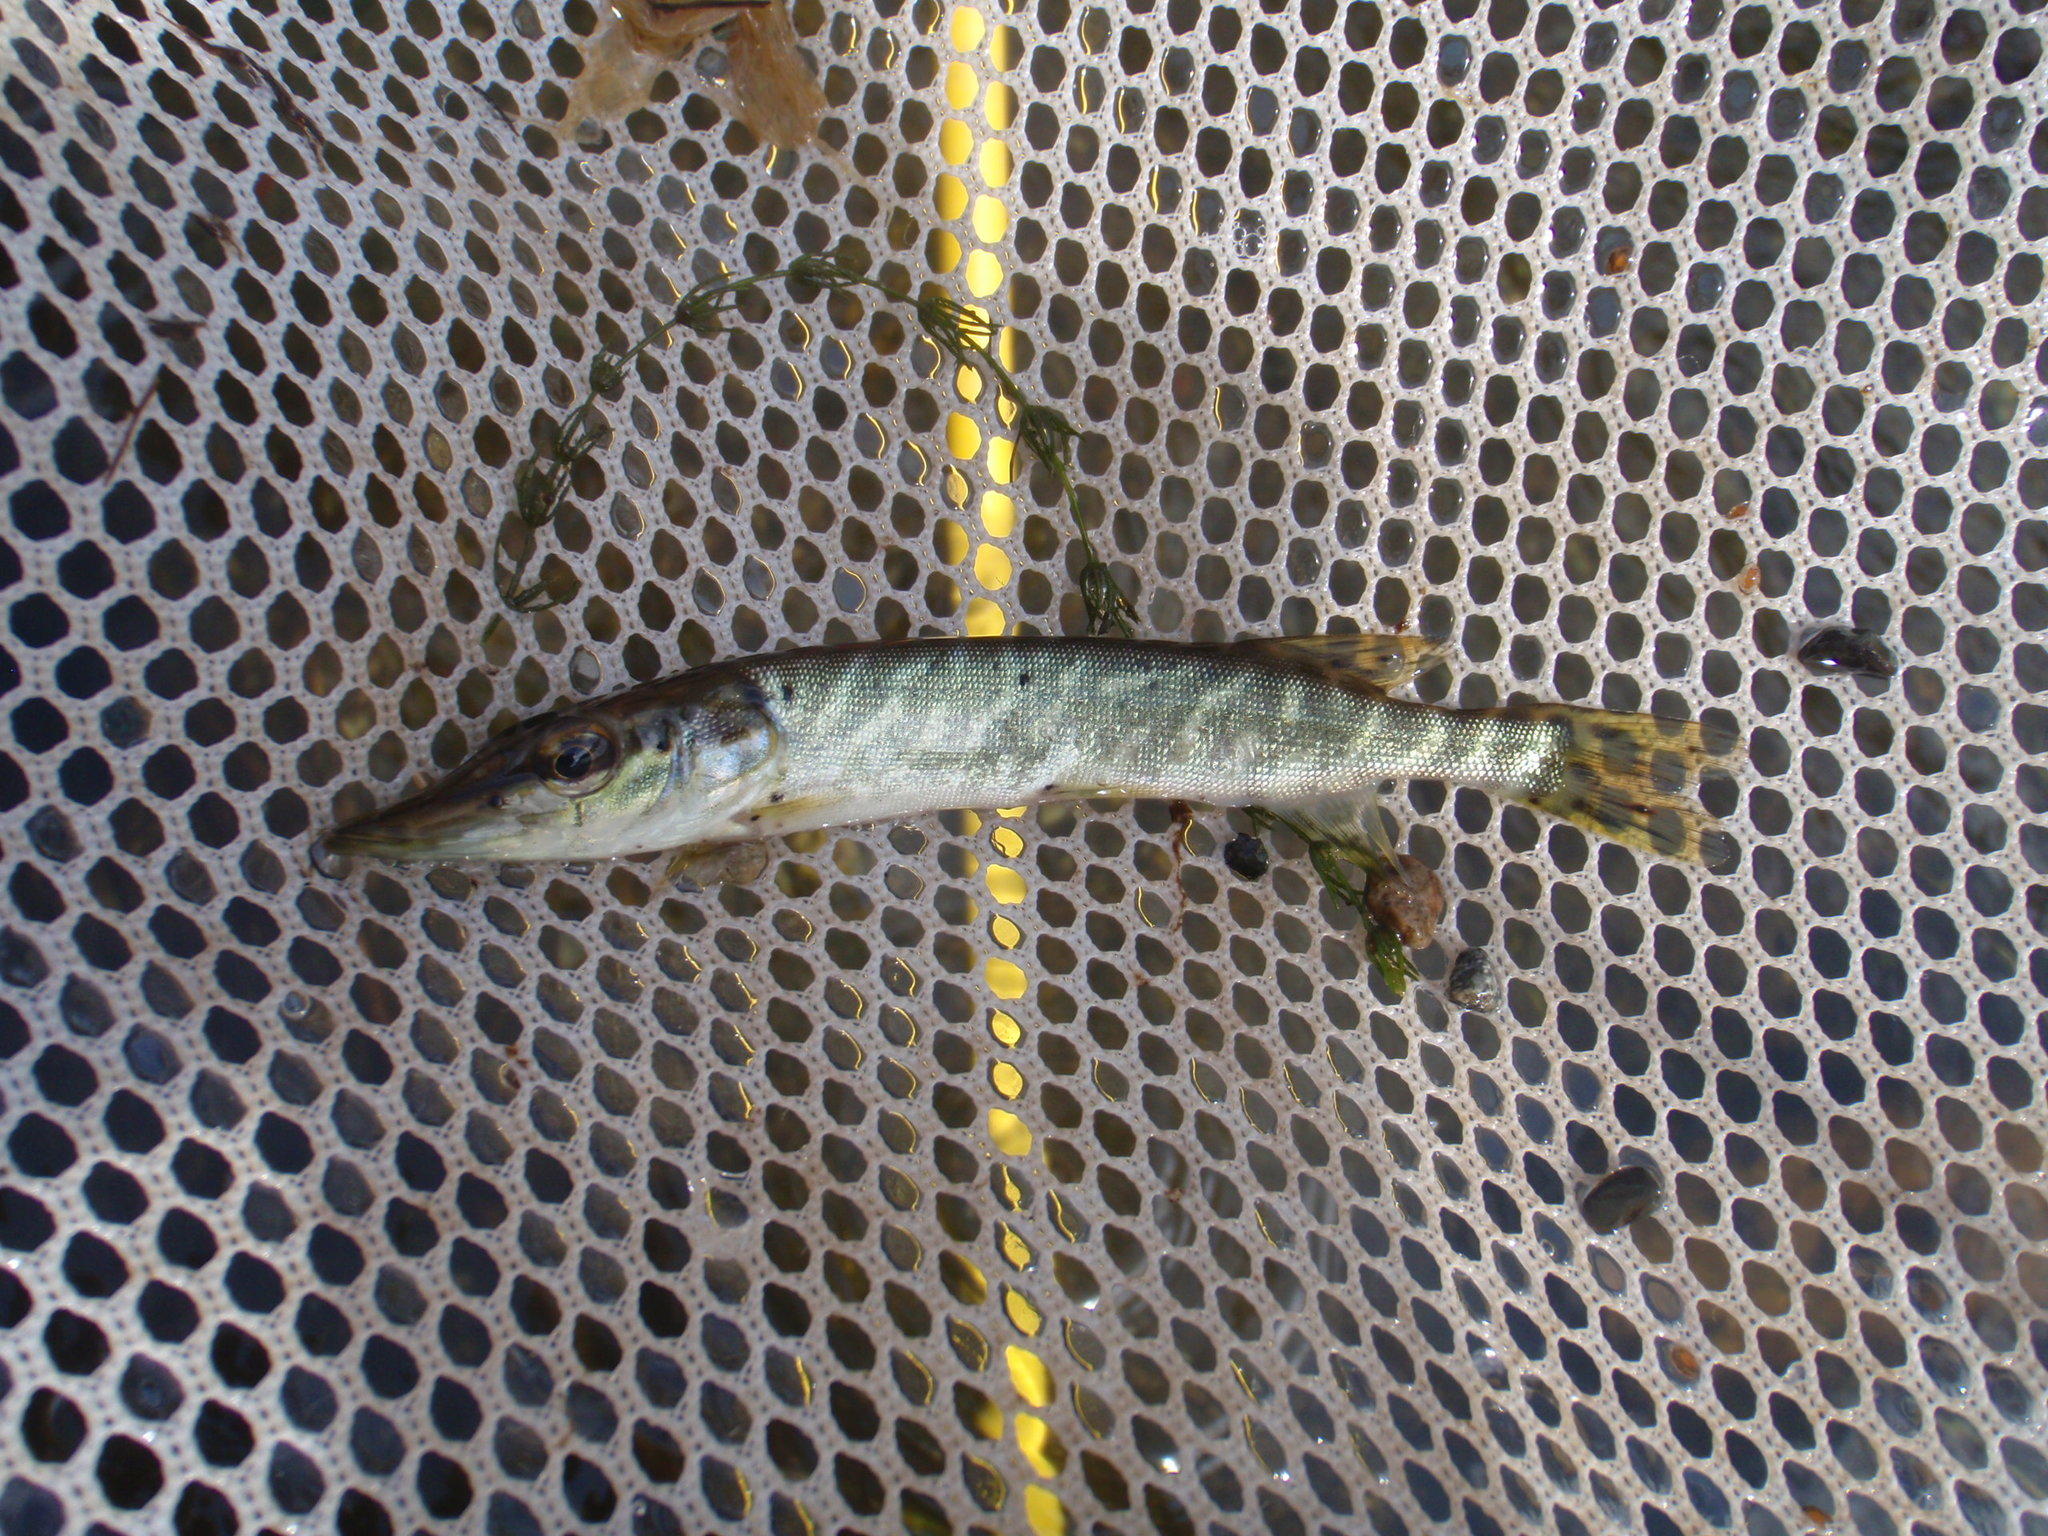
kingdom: Animalia
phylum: Chordata
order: Esociformes
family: Esocidae
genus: Esox
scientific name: Esox lucius
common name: Northern pike
